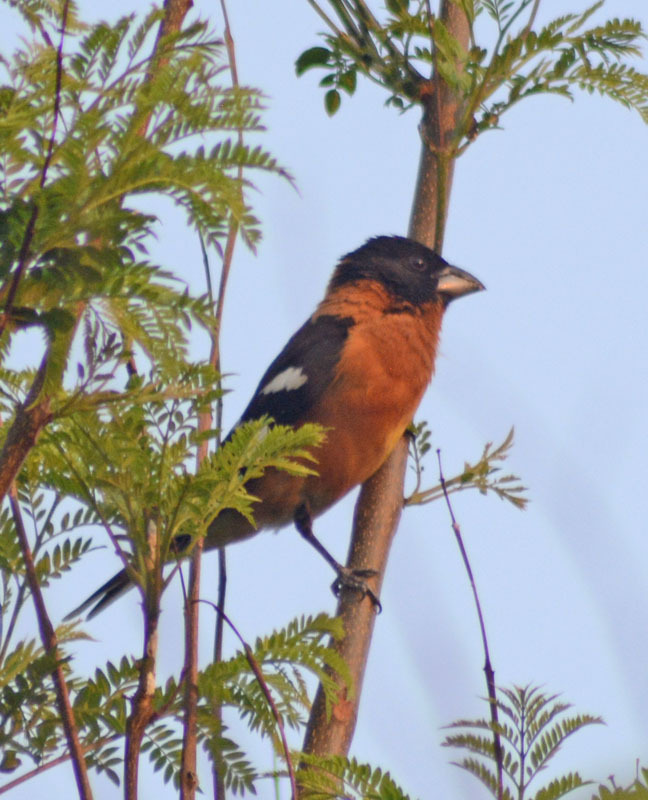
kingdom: Animalia
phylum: Chordata
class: Aves
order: Passeriformes
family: Cardinalidae
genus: Pheucticus
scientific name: Pheucticus melanocephalus
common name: Black-headed grosbeak
